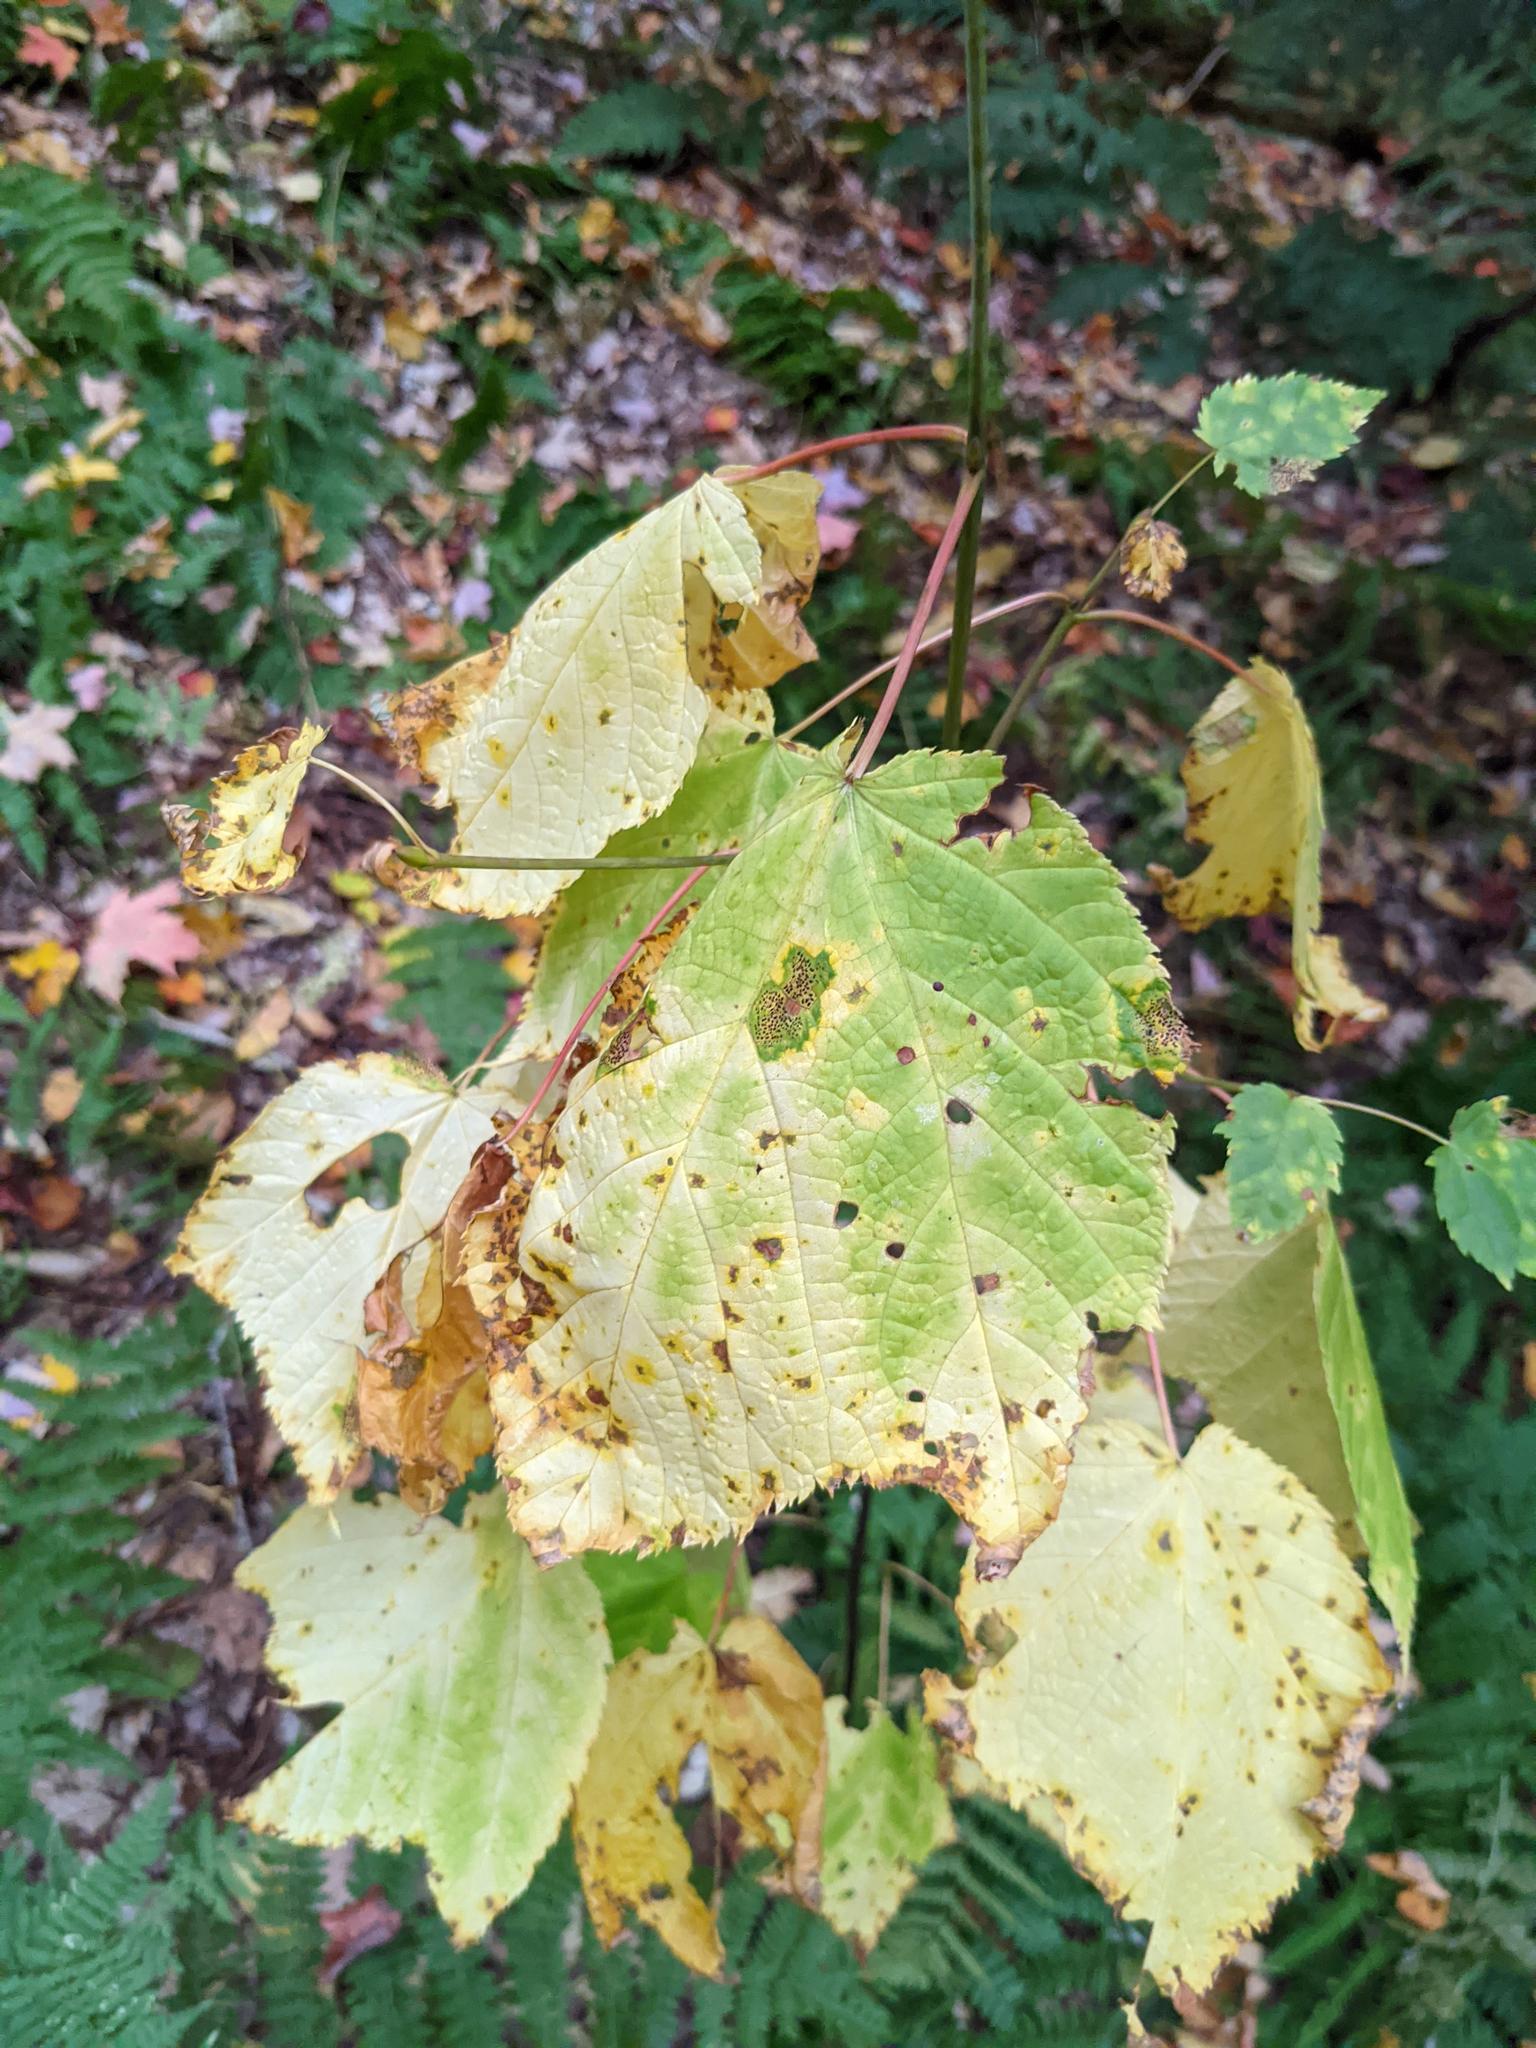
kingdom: Plantae
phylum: Tracheophyta
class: Magnoliopsida
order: Sapindales
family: Sapindaceae
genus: Acer
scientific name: Acer pensylvanicum
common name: Moosewood
